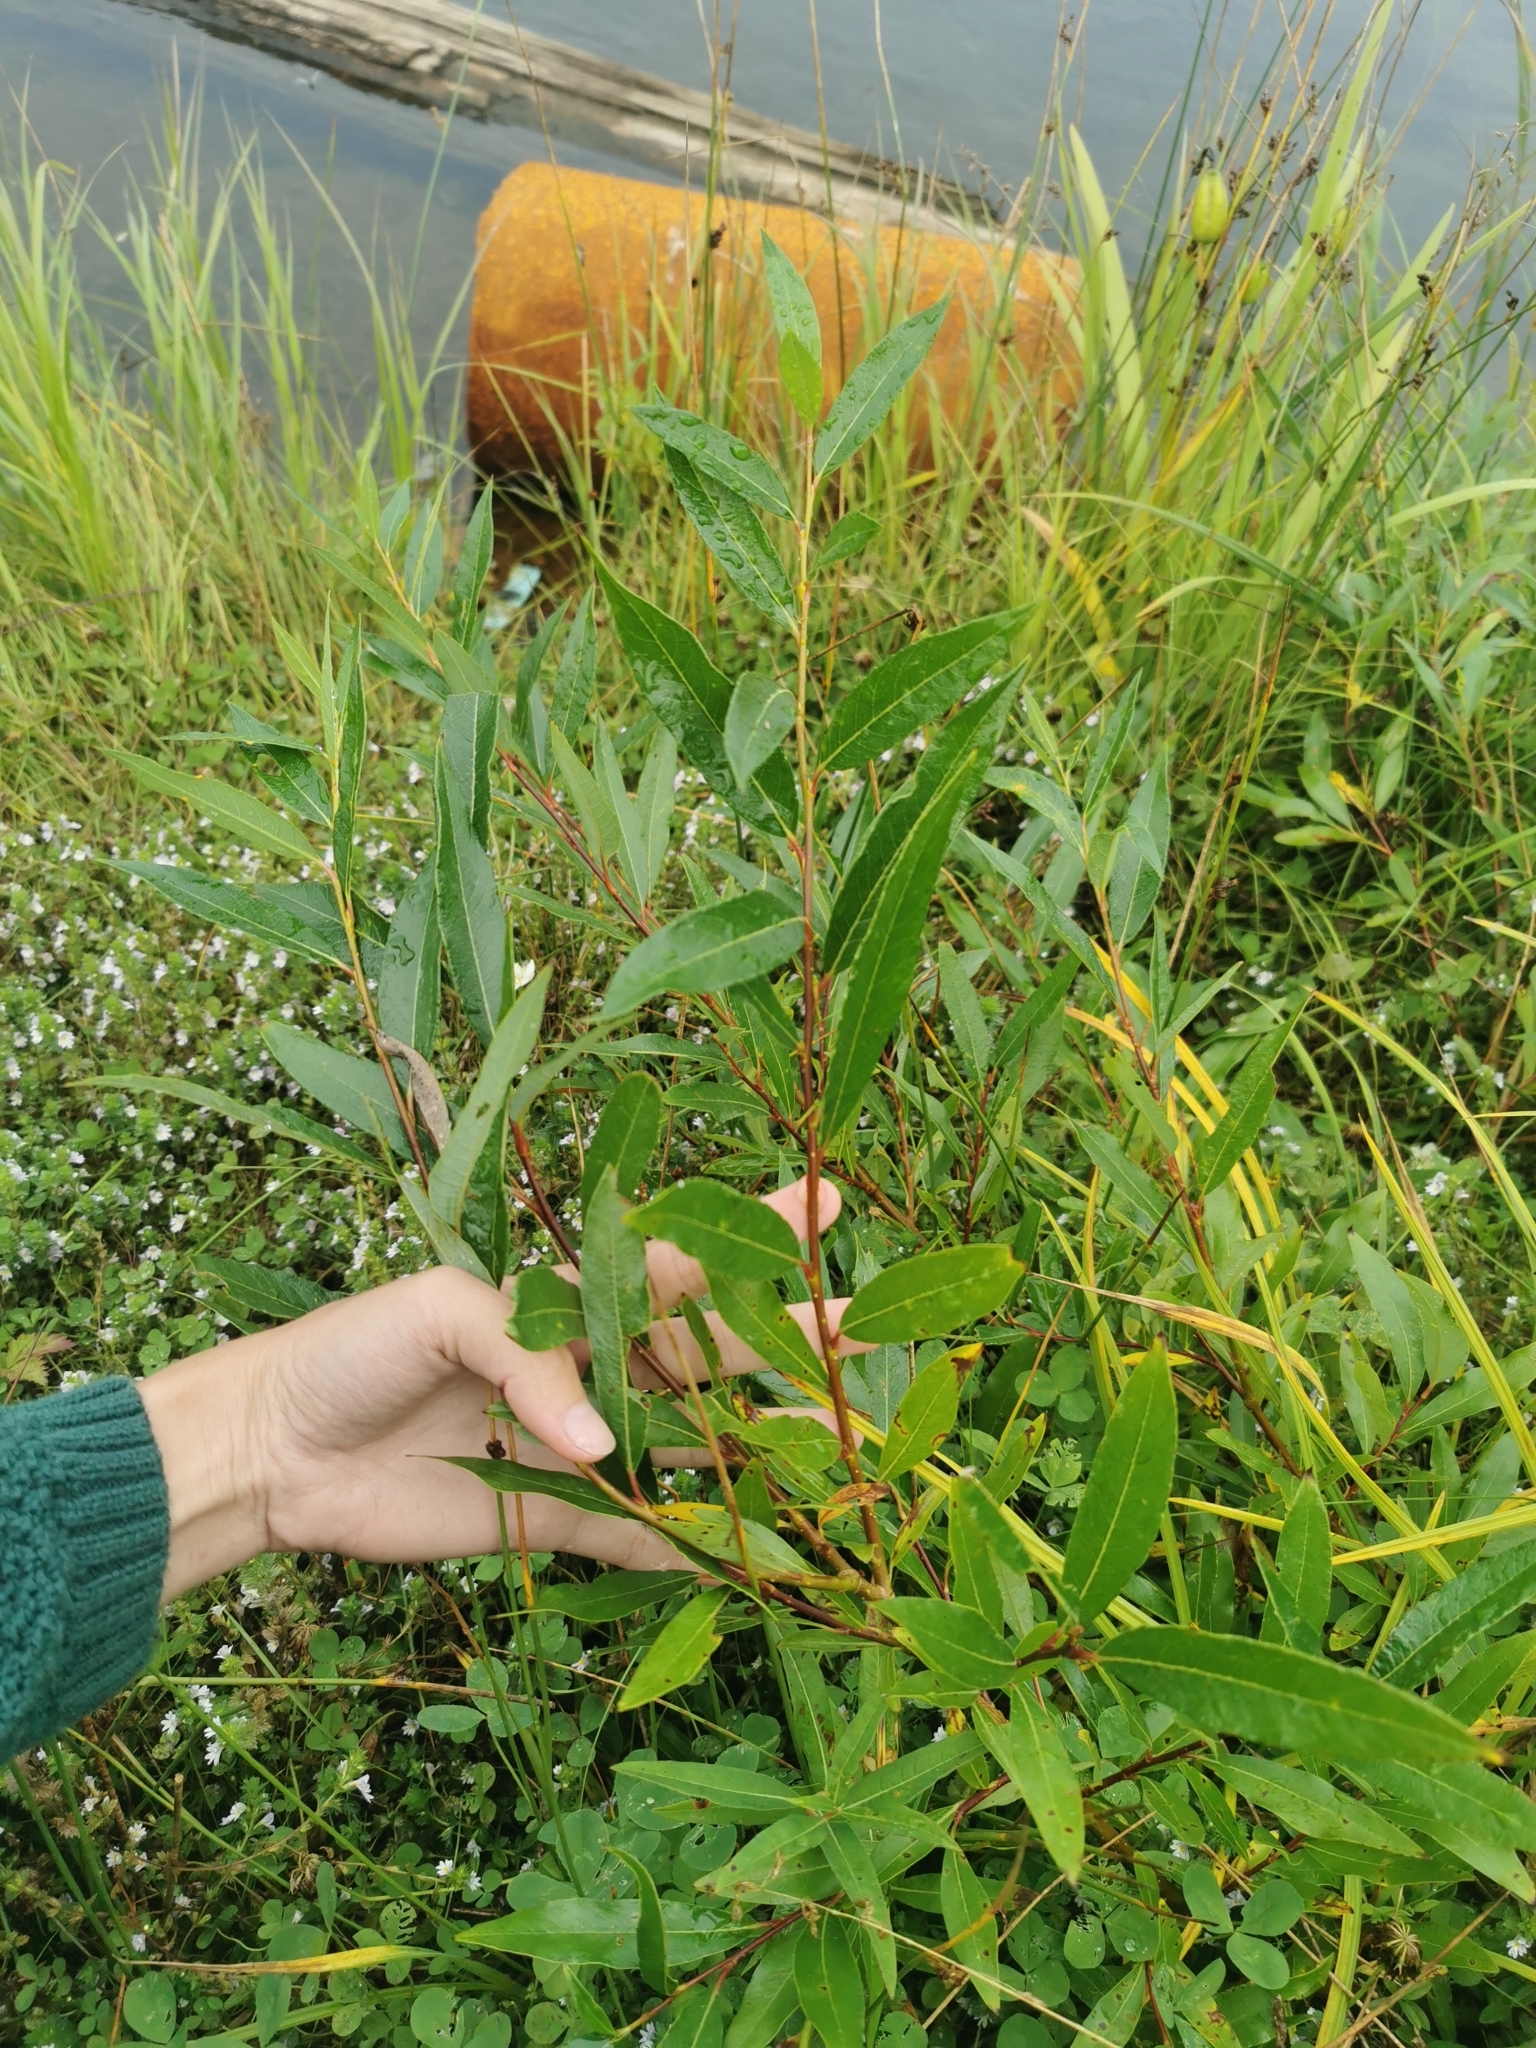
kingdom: Plantae
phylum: Tracheophyta
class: Magnoliopsida
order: Malpighiales
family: Salicaceae
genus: Salix
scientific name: Salix udensis
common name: Sachalin willow
